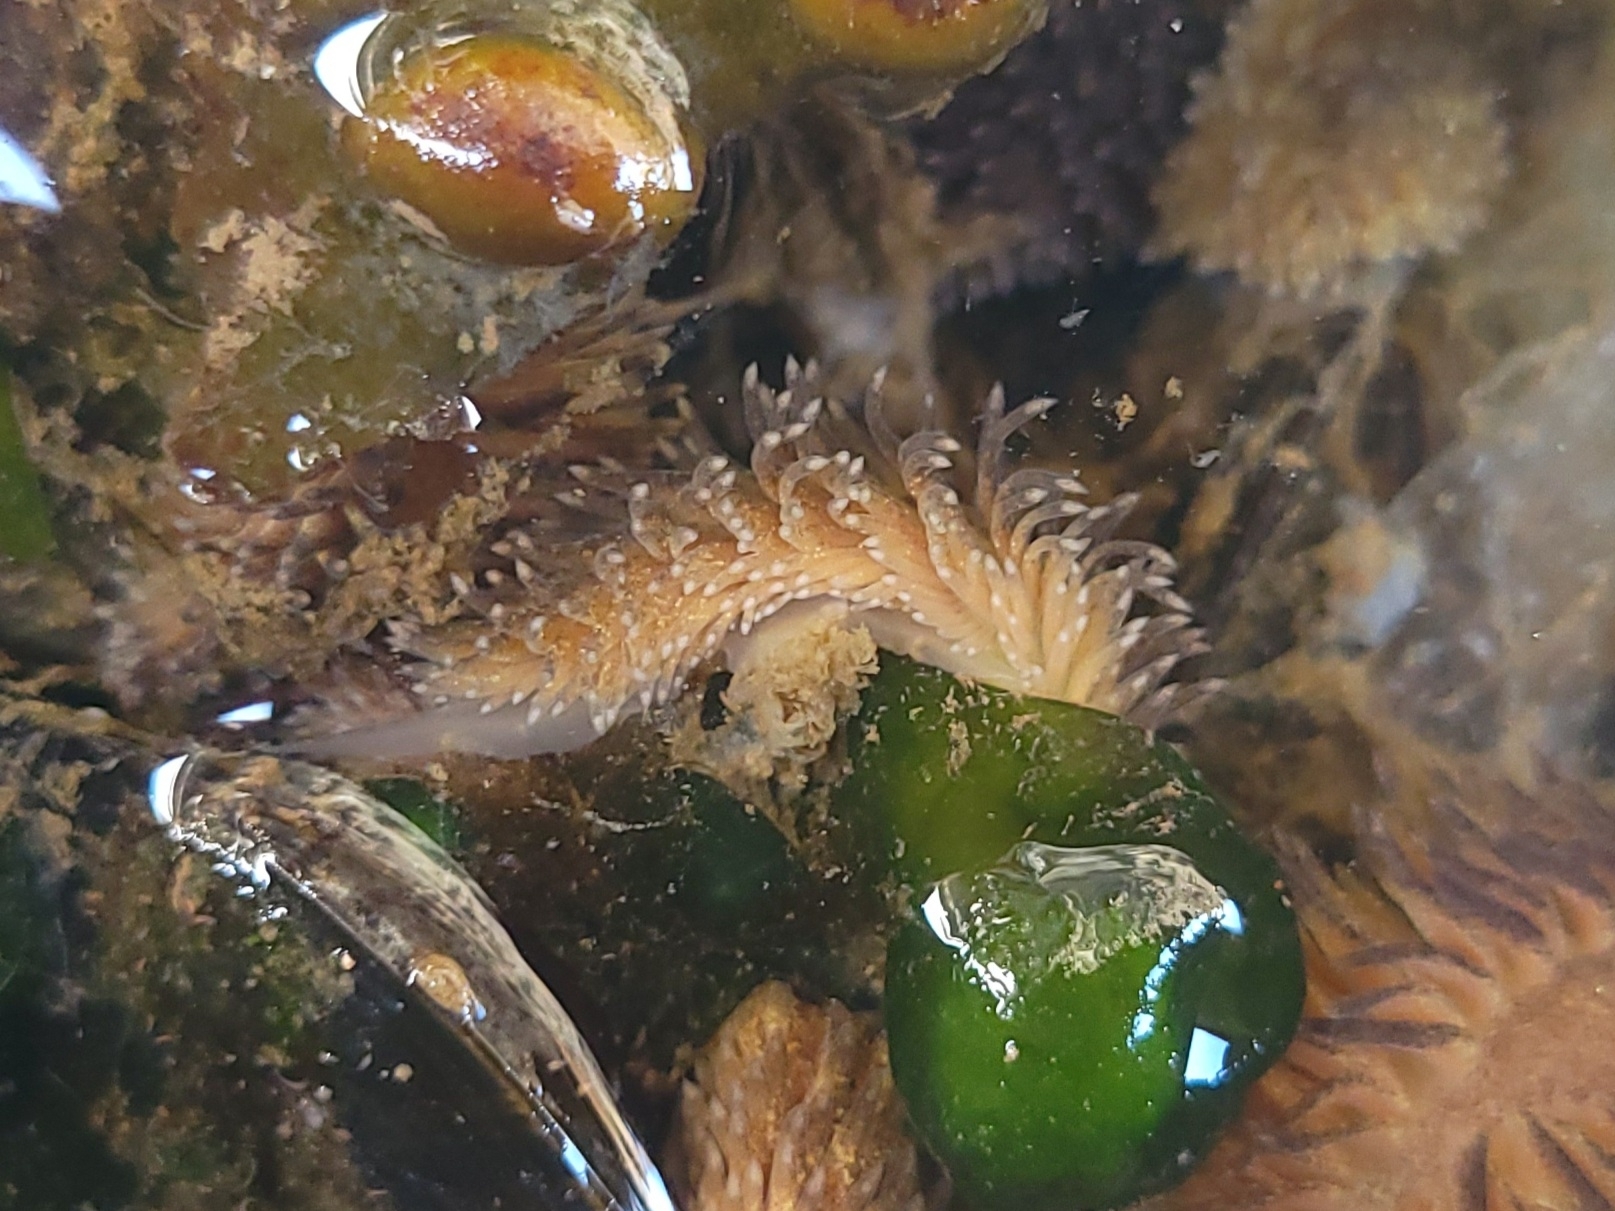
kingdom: Animalia
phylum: Mollusca
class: Gastropoda
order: Nudibranchia
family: Aeolidiidae
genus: Aeolidia
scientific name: Aeolidia papillosa
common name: Common grey sea slug
